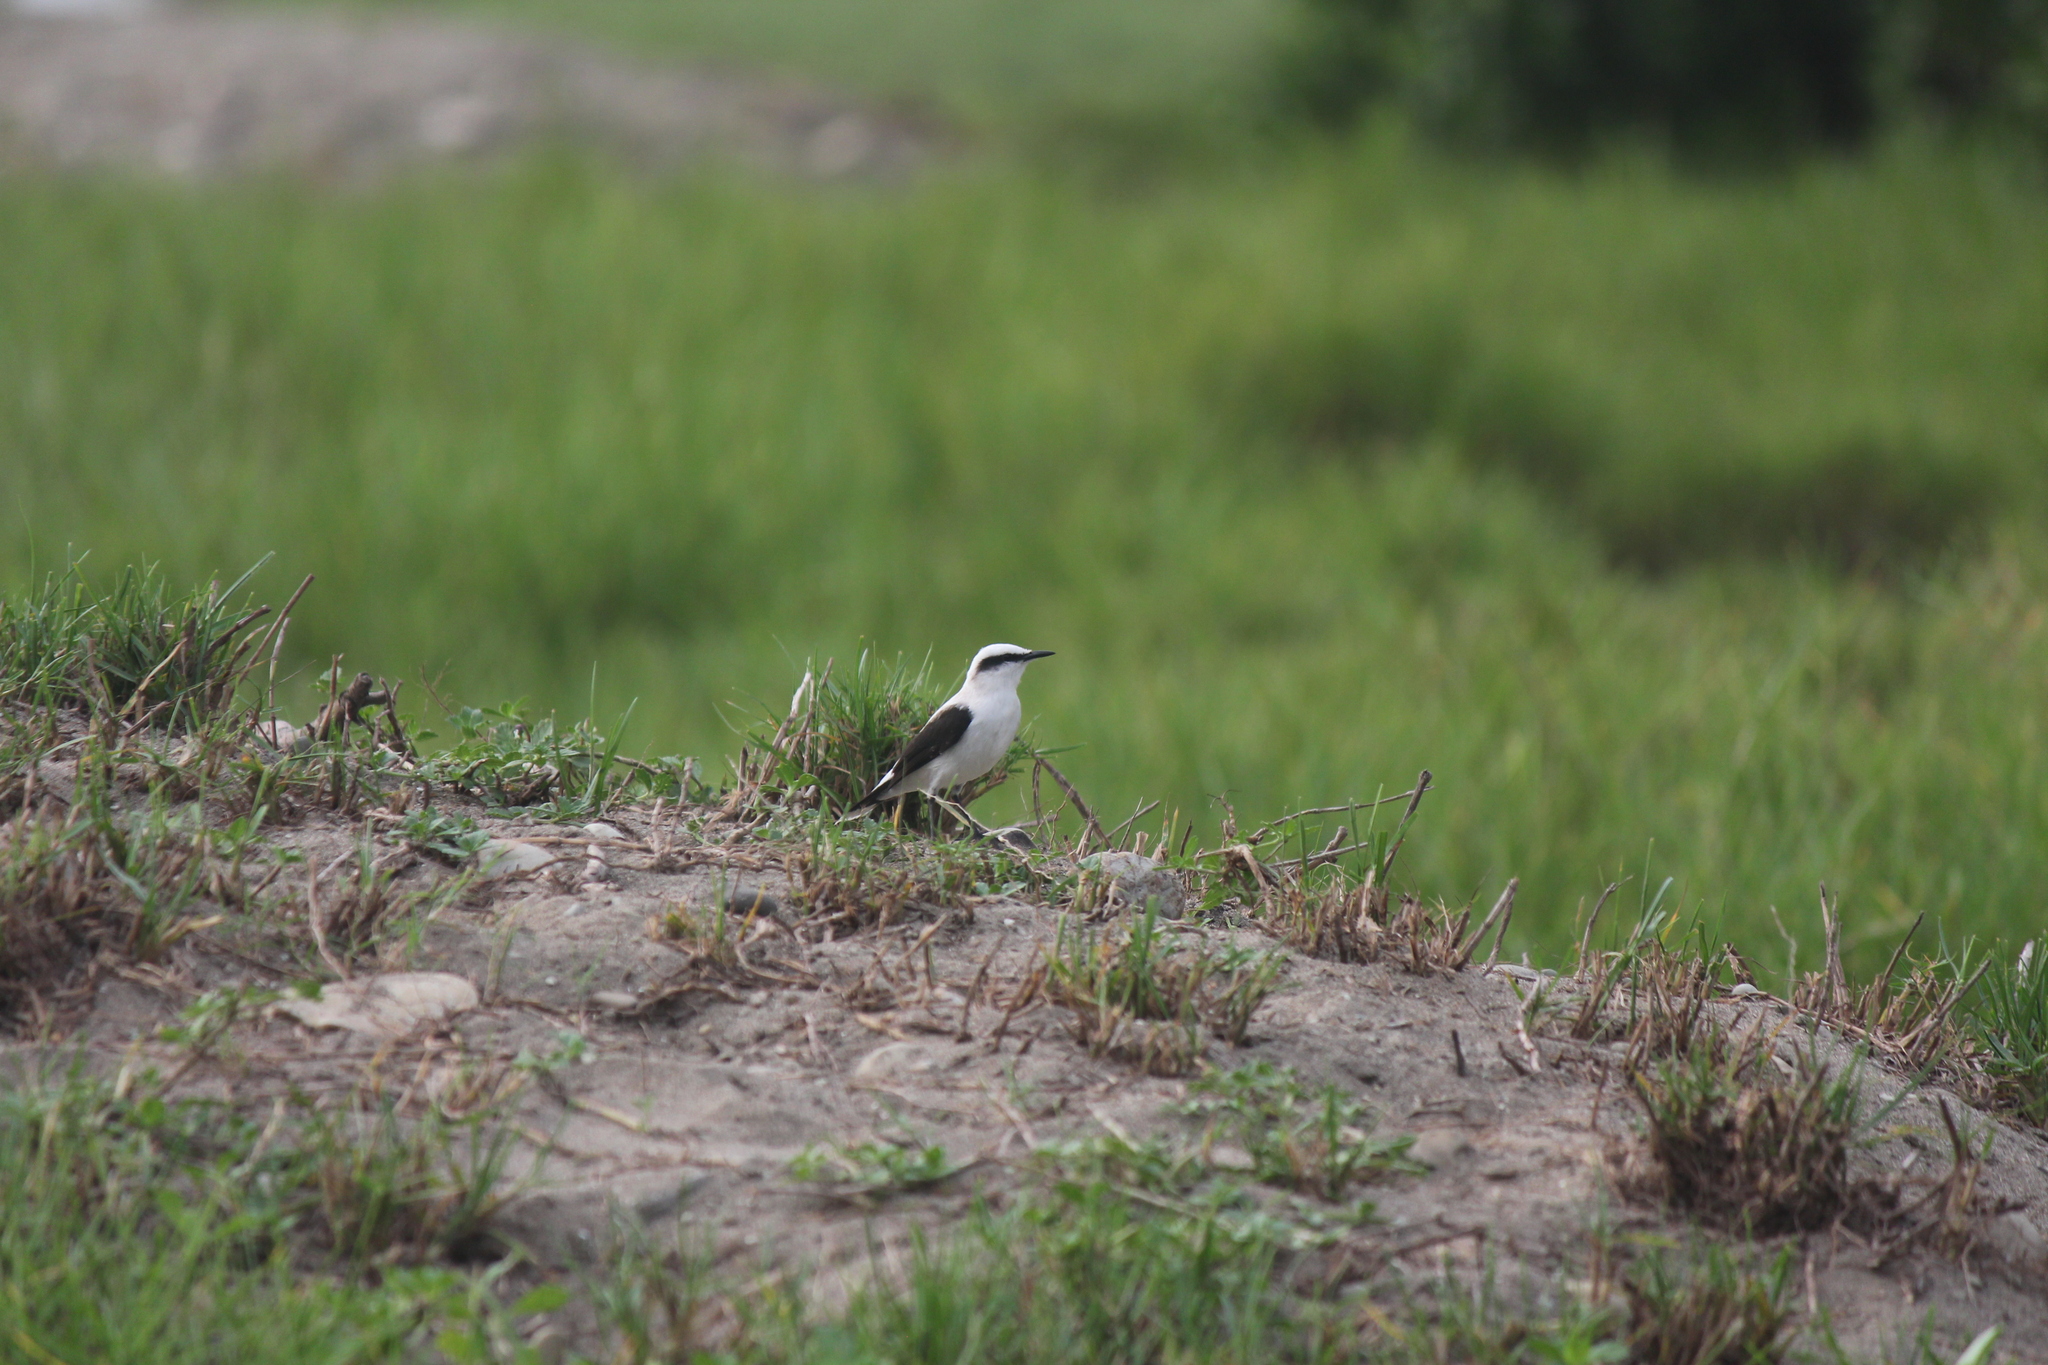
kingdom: Animalia
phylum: Chordata
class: Aves
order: Passeriformes
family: Tyrannidae
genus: Fluvicola
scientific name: Fluvicola nengeta
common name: Masked water tyrant
